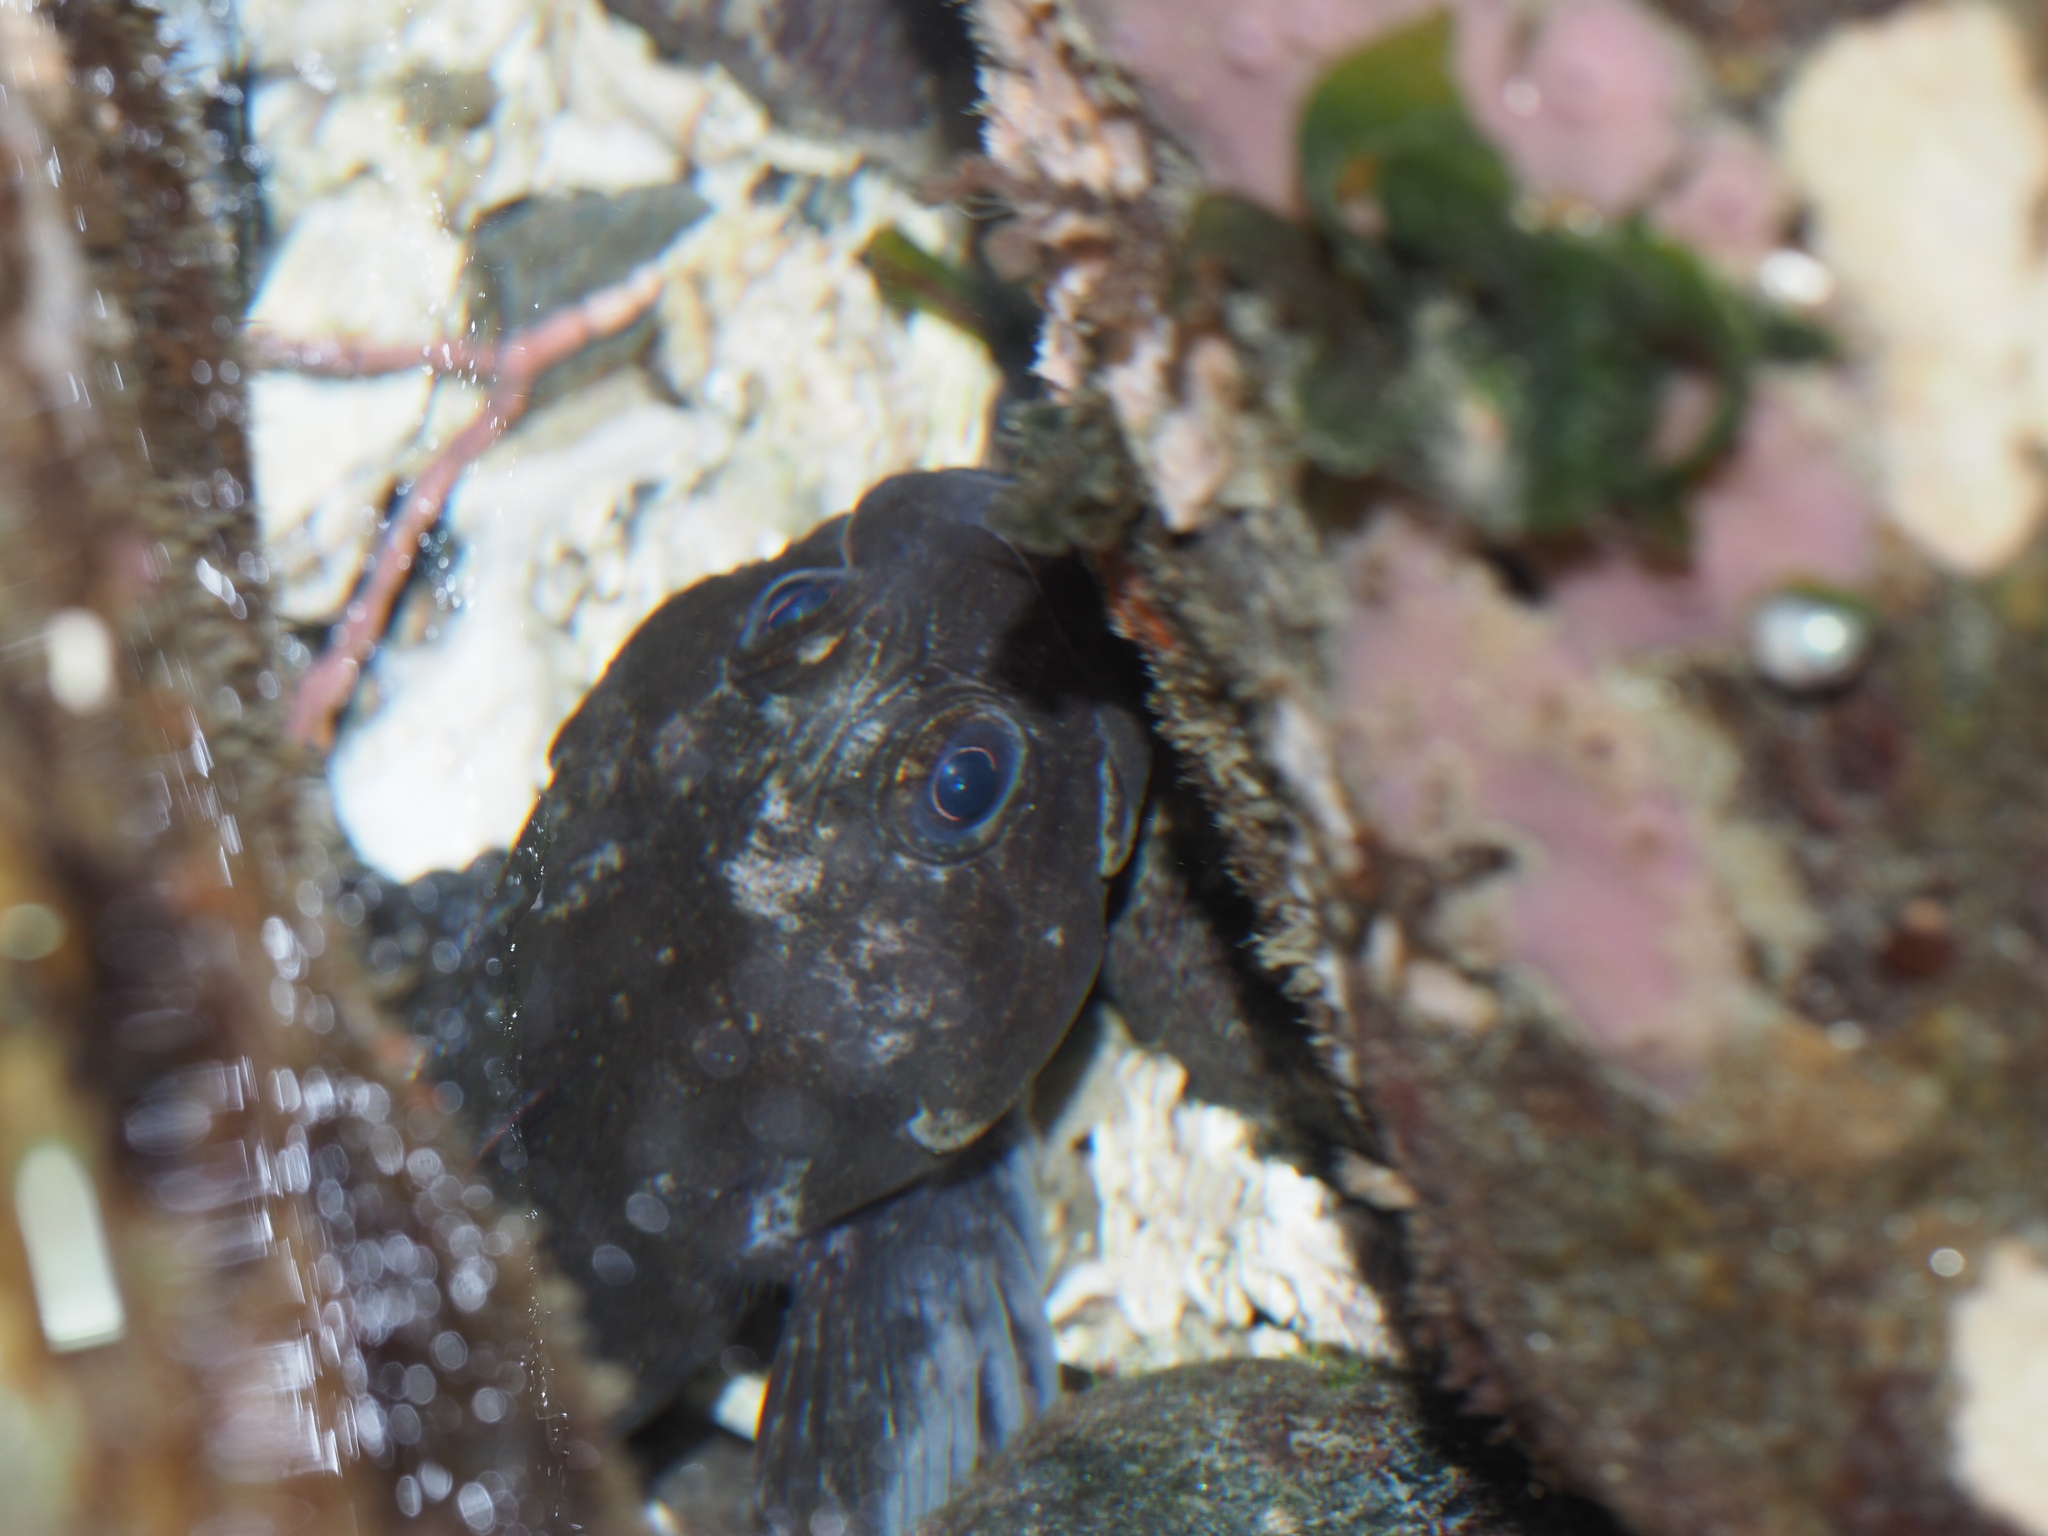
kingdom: Animalia
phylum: Chordata
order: Scorpaeniformes
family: Cottidae
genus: Ascelichthys
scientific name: Ascelichthys rhodorus
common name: Rosylip sculpin
